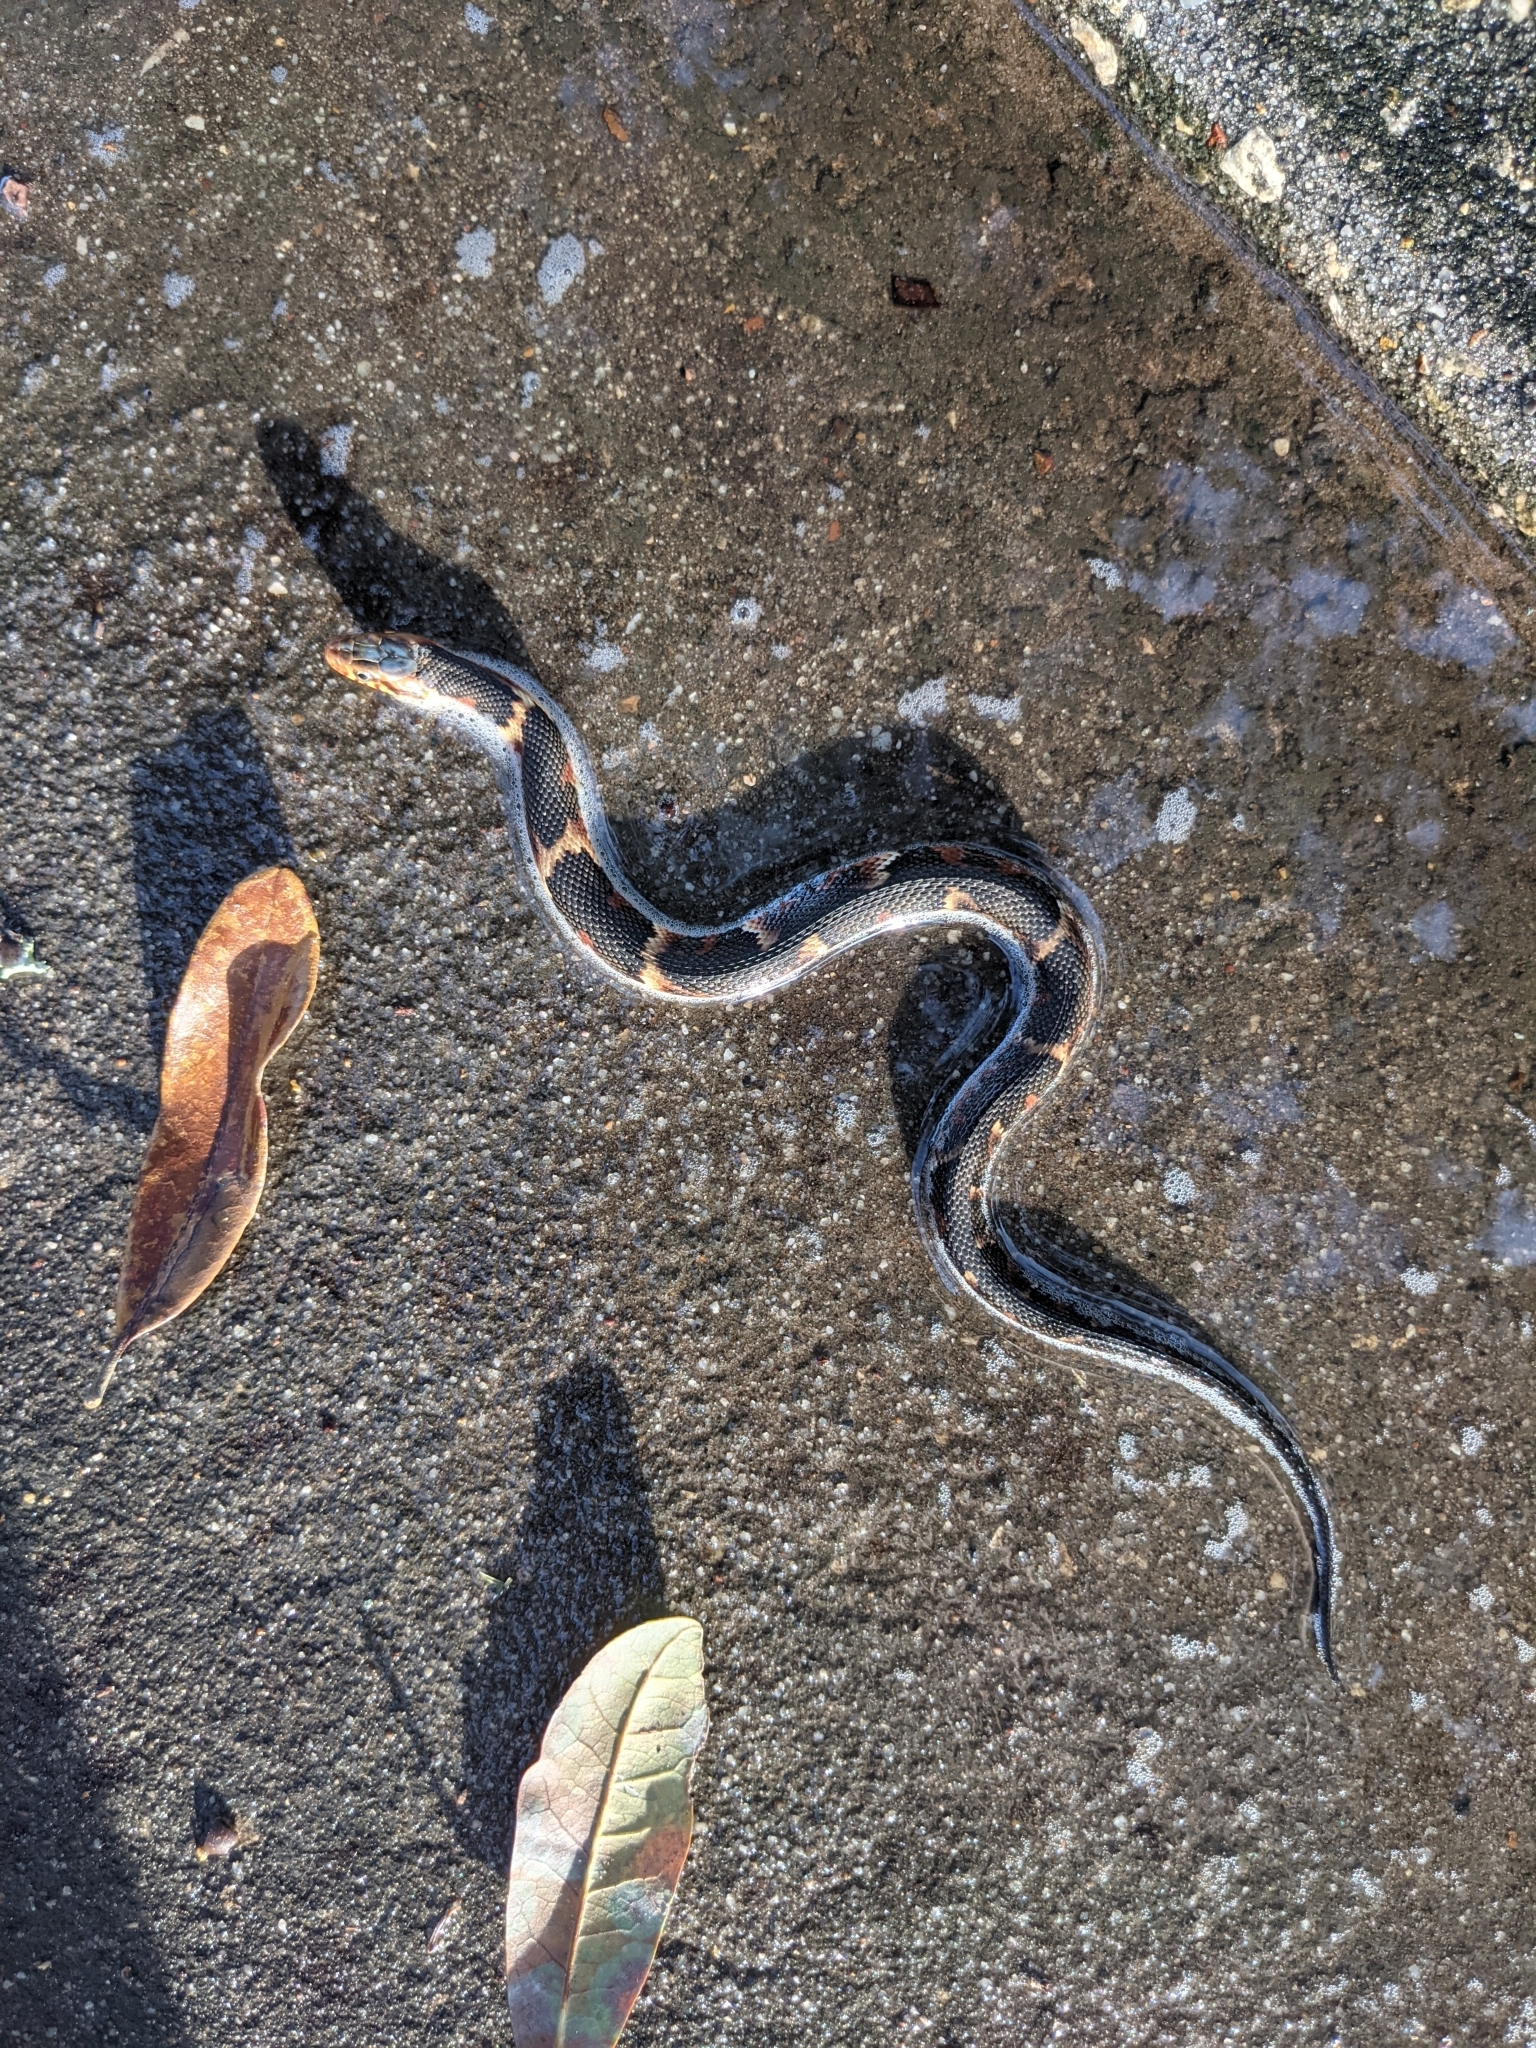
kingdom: Animalia
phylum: Chordata
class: Squamata
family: Colubridae
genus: Nerodia
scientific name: Nerodia fasciata
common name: Southern water snake
